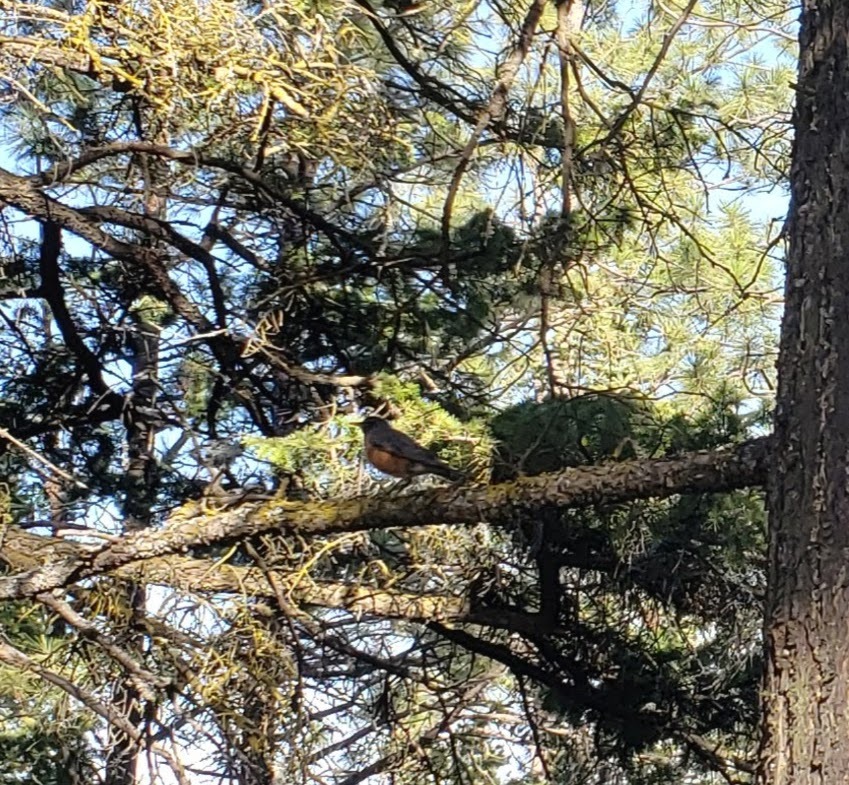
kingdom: Animalia
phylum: Chordata
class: Aves
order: Passeriformes
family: Turdidae
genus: Turdus
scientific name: Turdus migratorius
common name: American robin
